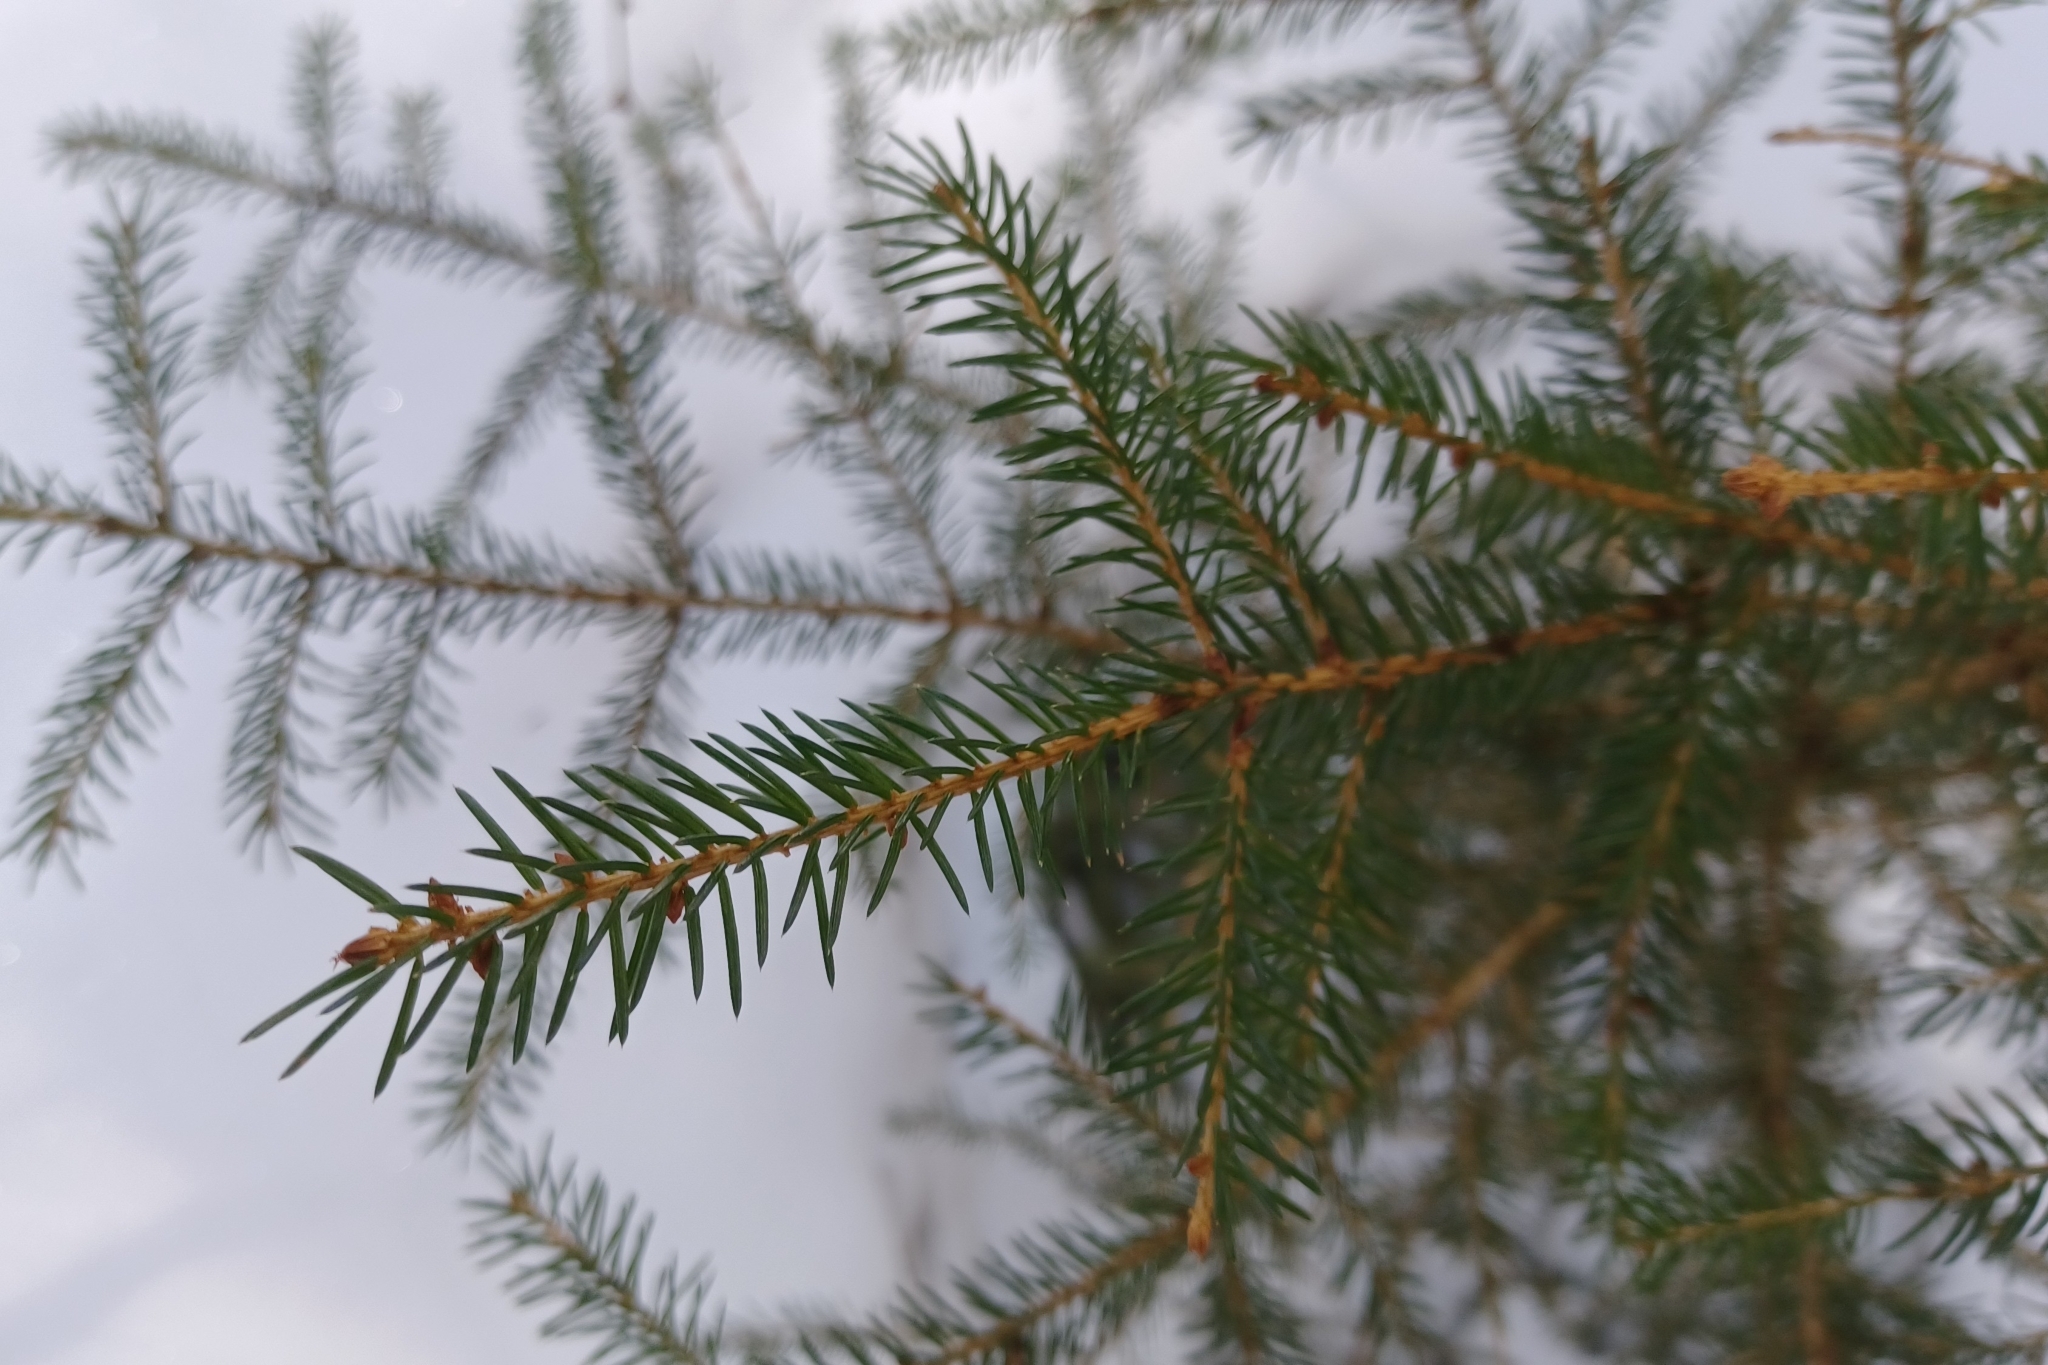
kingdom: Plantae
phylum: Tracheophyta
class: Pinopsida
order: Pinales
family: Pinaceae
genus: Picea
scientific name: Picea rubens
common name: Red spruce
